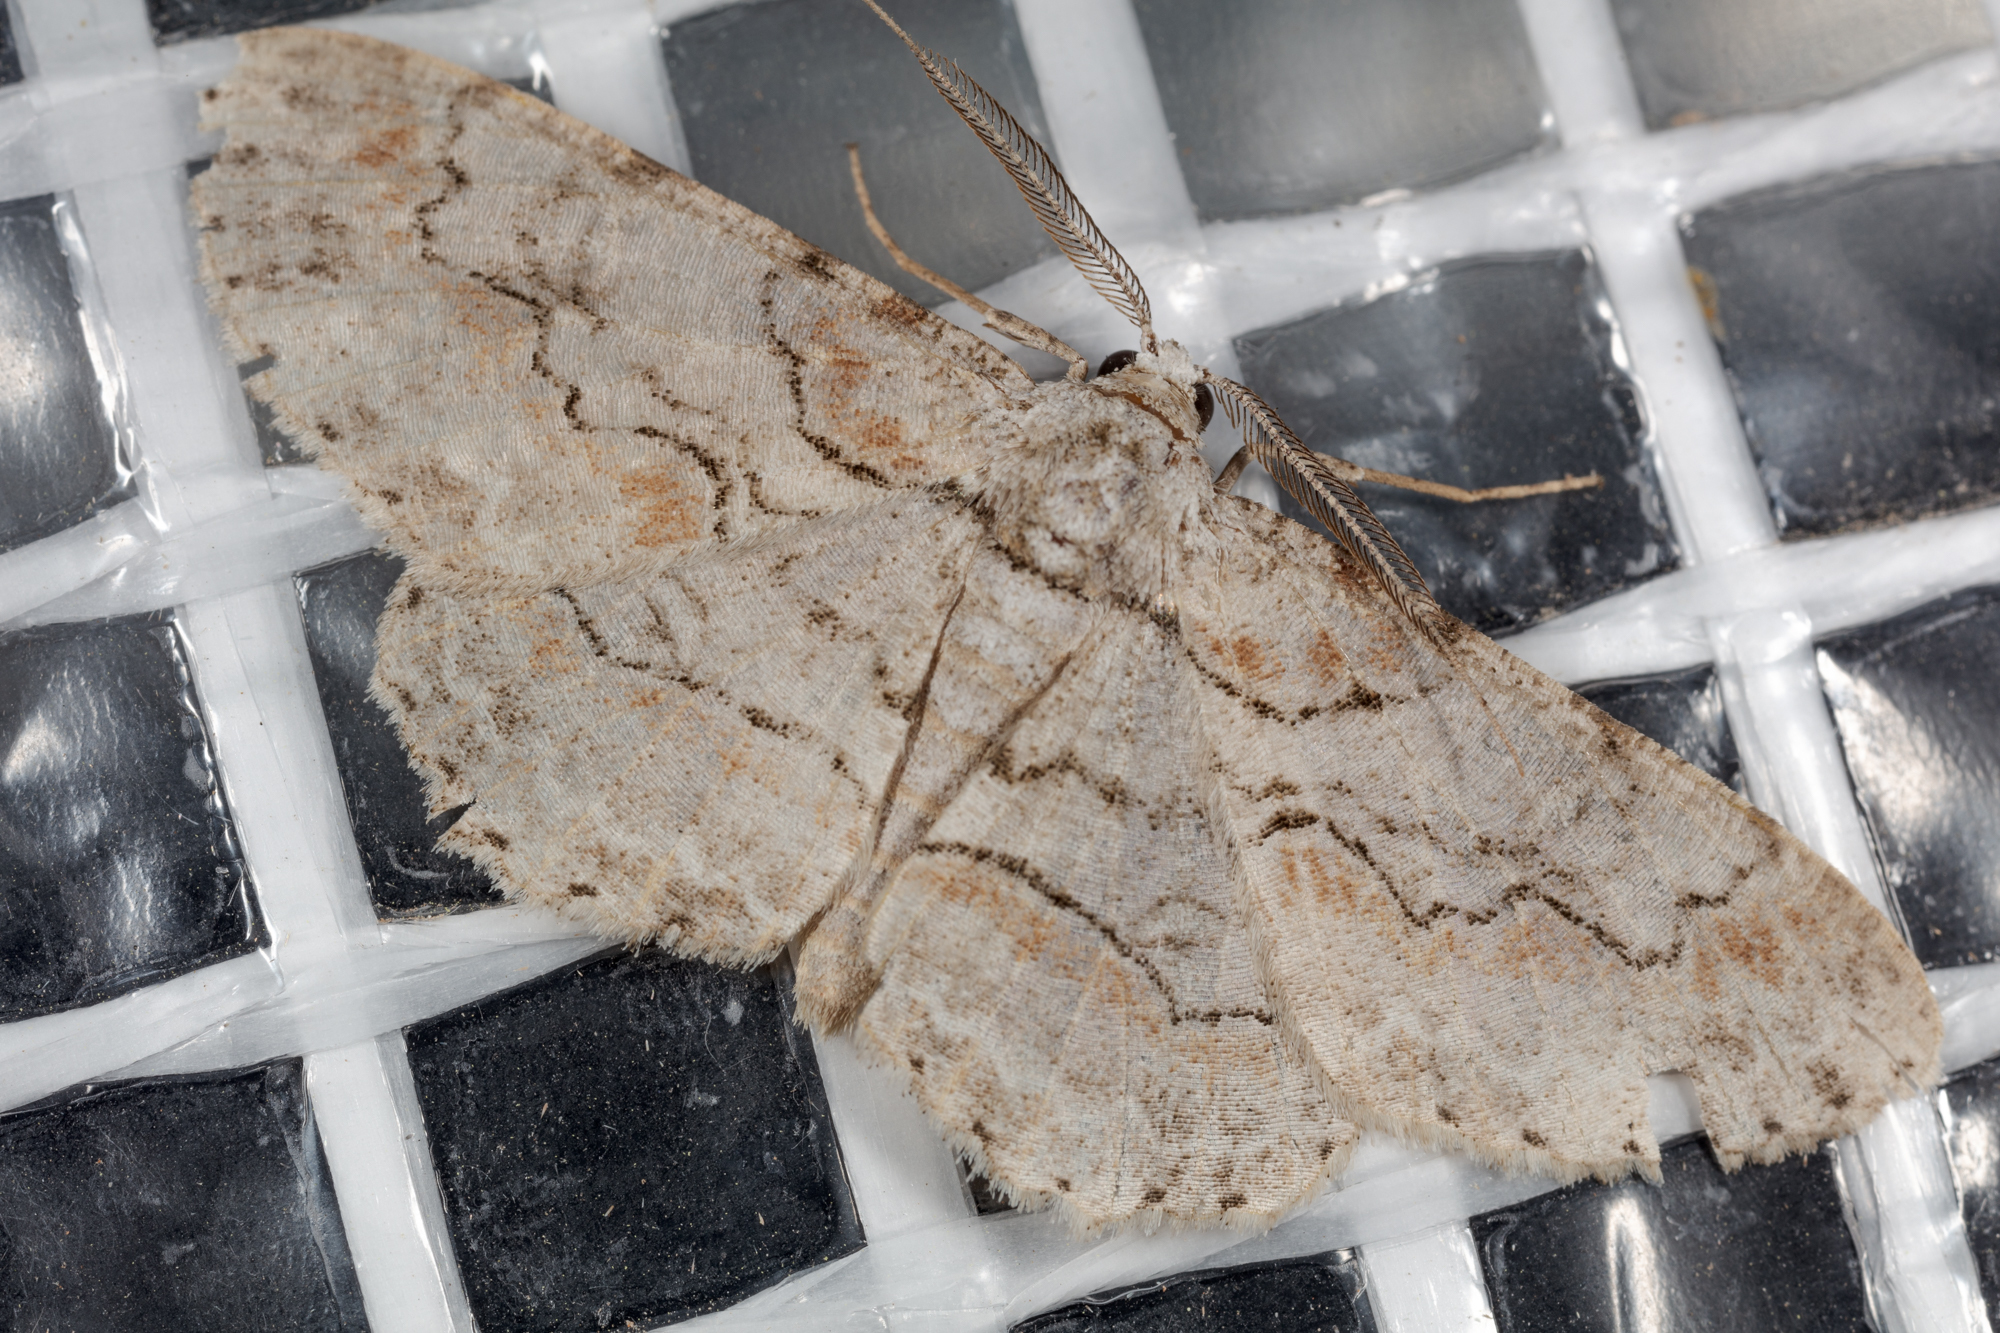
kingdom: Animalia
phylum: Arthropoda
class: Insecta
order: Lepidoptera
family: Geometridae
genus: Iridopsis
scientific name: Iridopsis defectaria
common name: Brown-shaded gray
